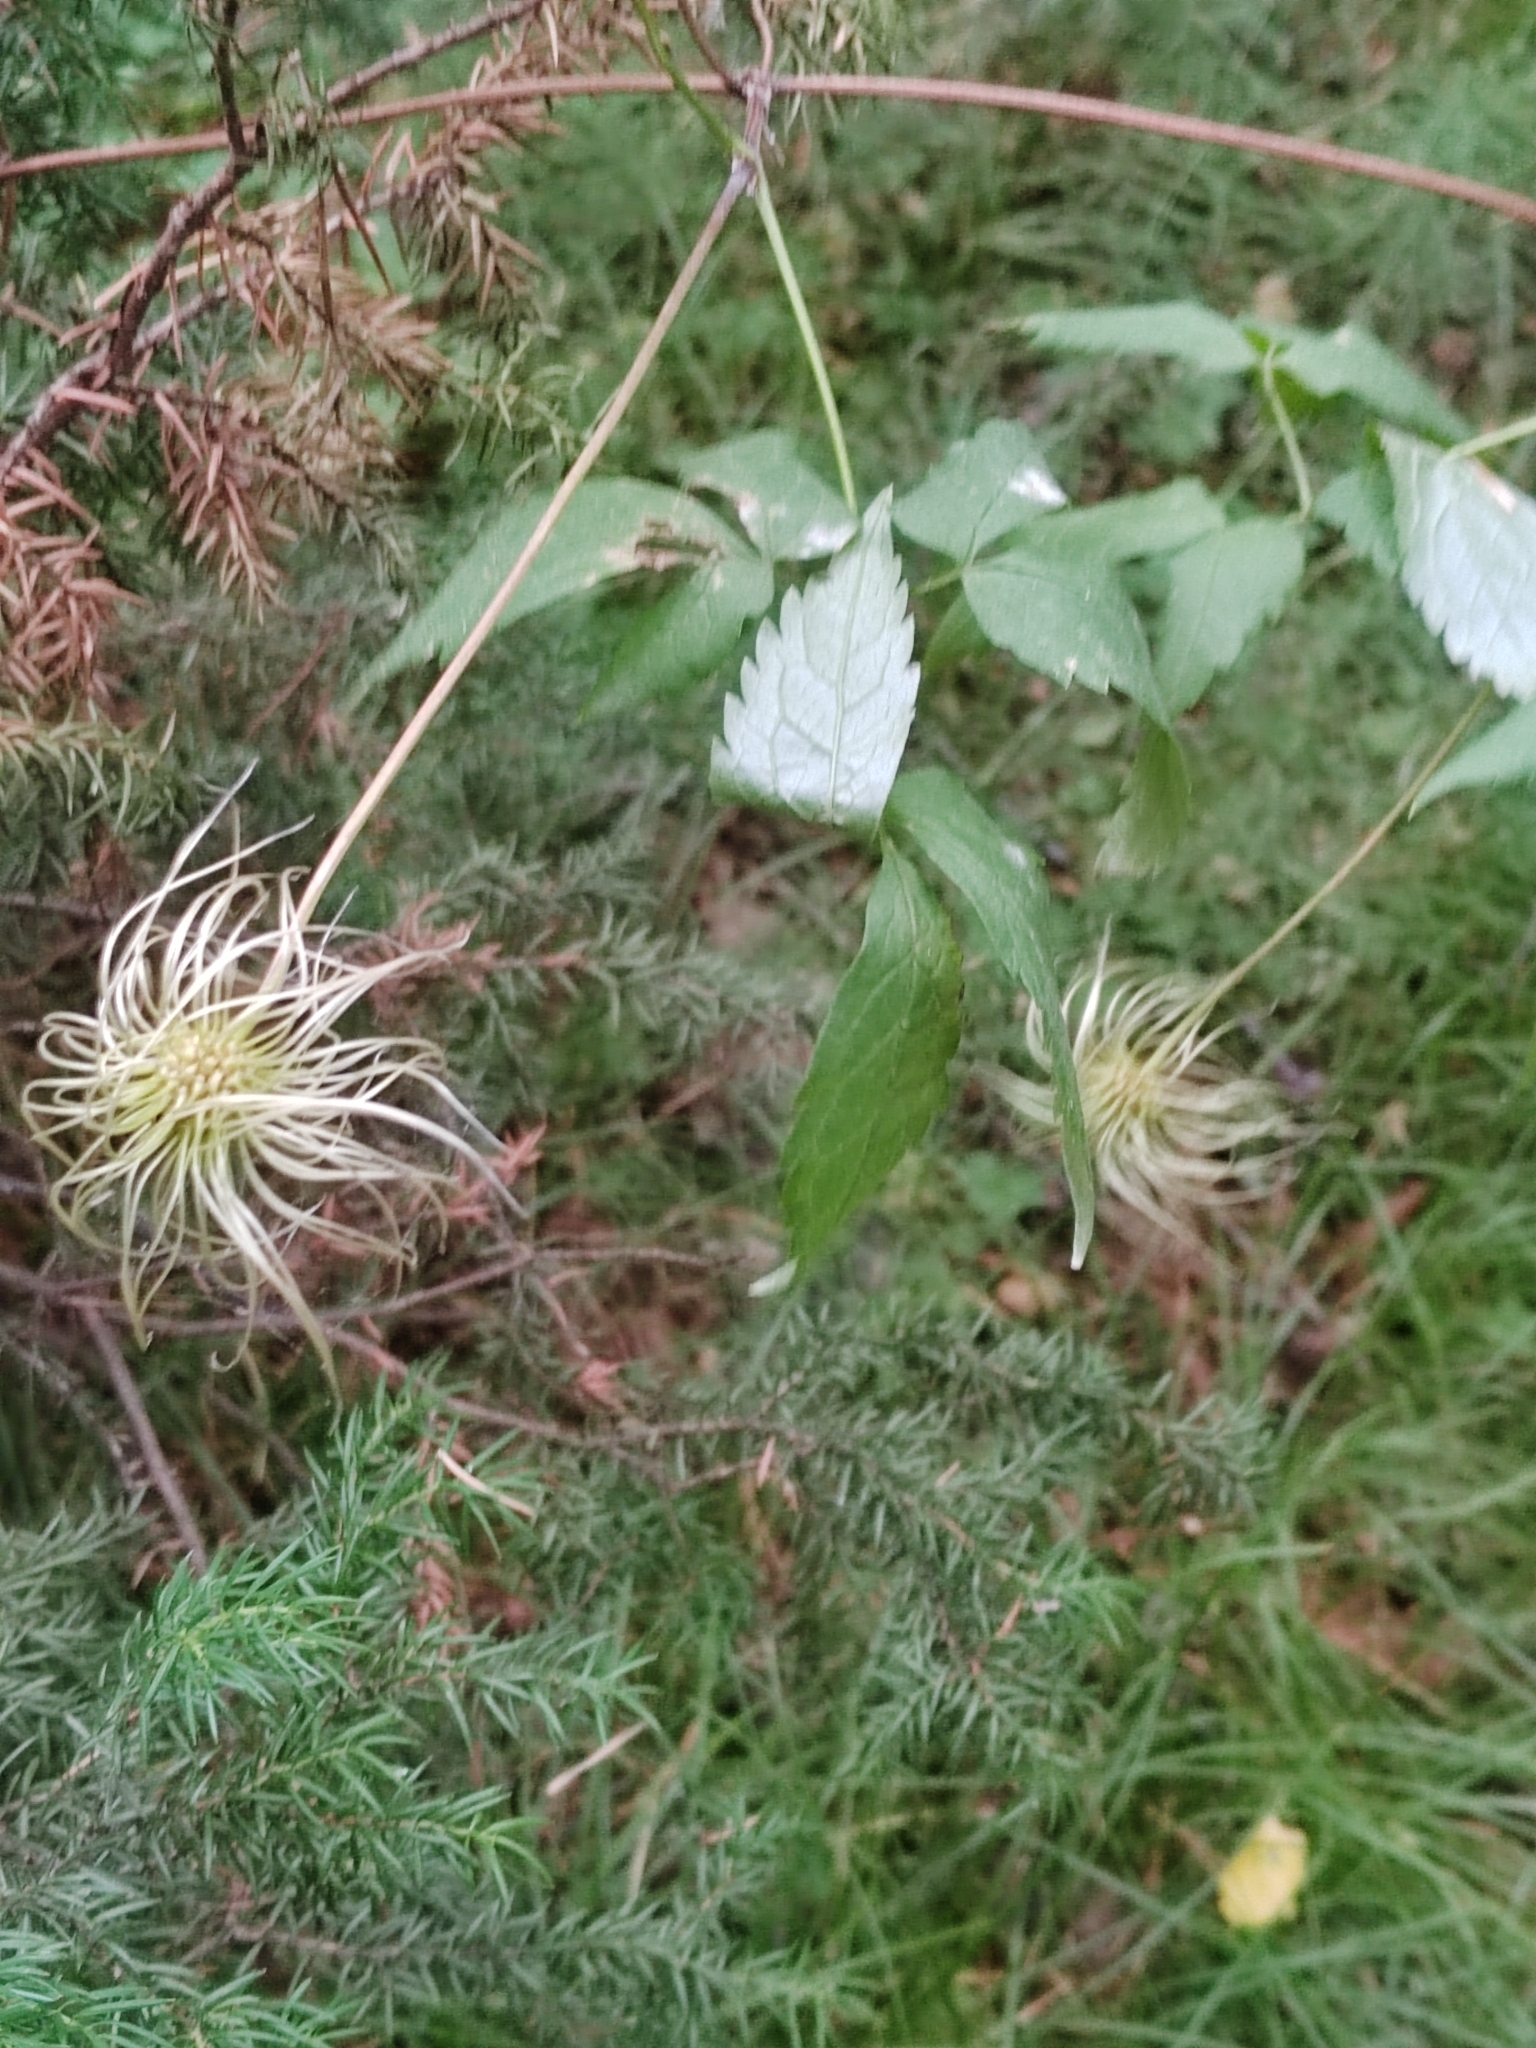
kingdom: Plantae
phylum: Tracheophyta
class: Magnoliopsida
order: Ranunculales
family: Ranunculaceae
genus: Clematis
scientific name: Clematis sibirica
